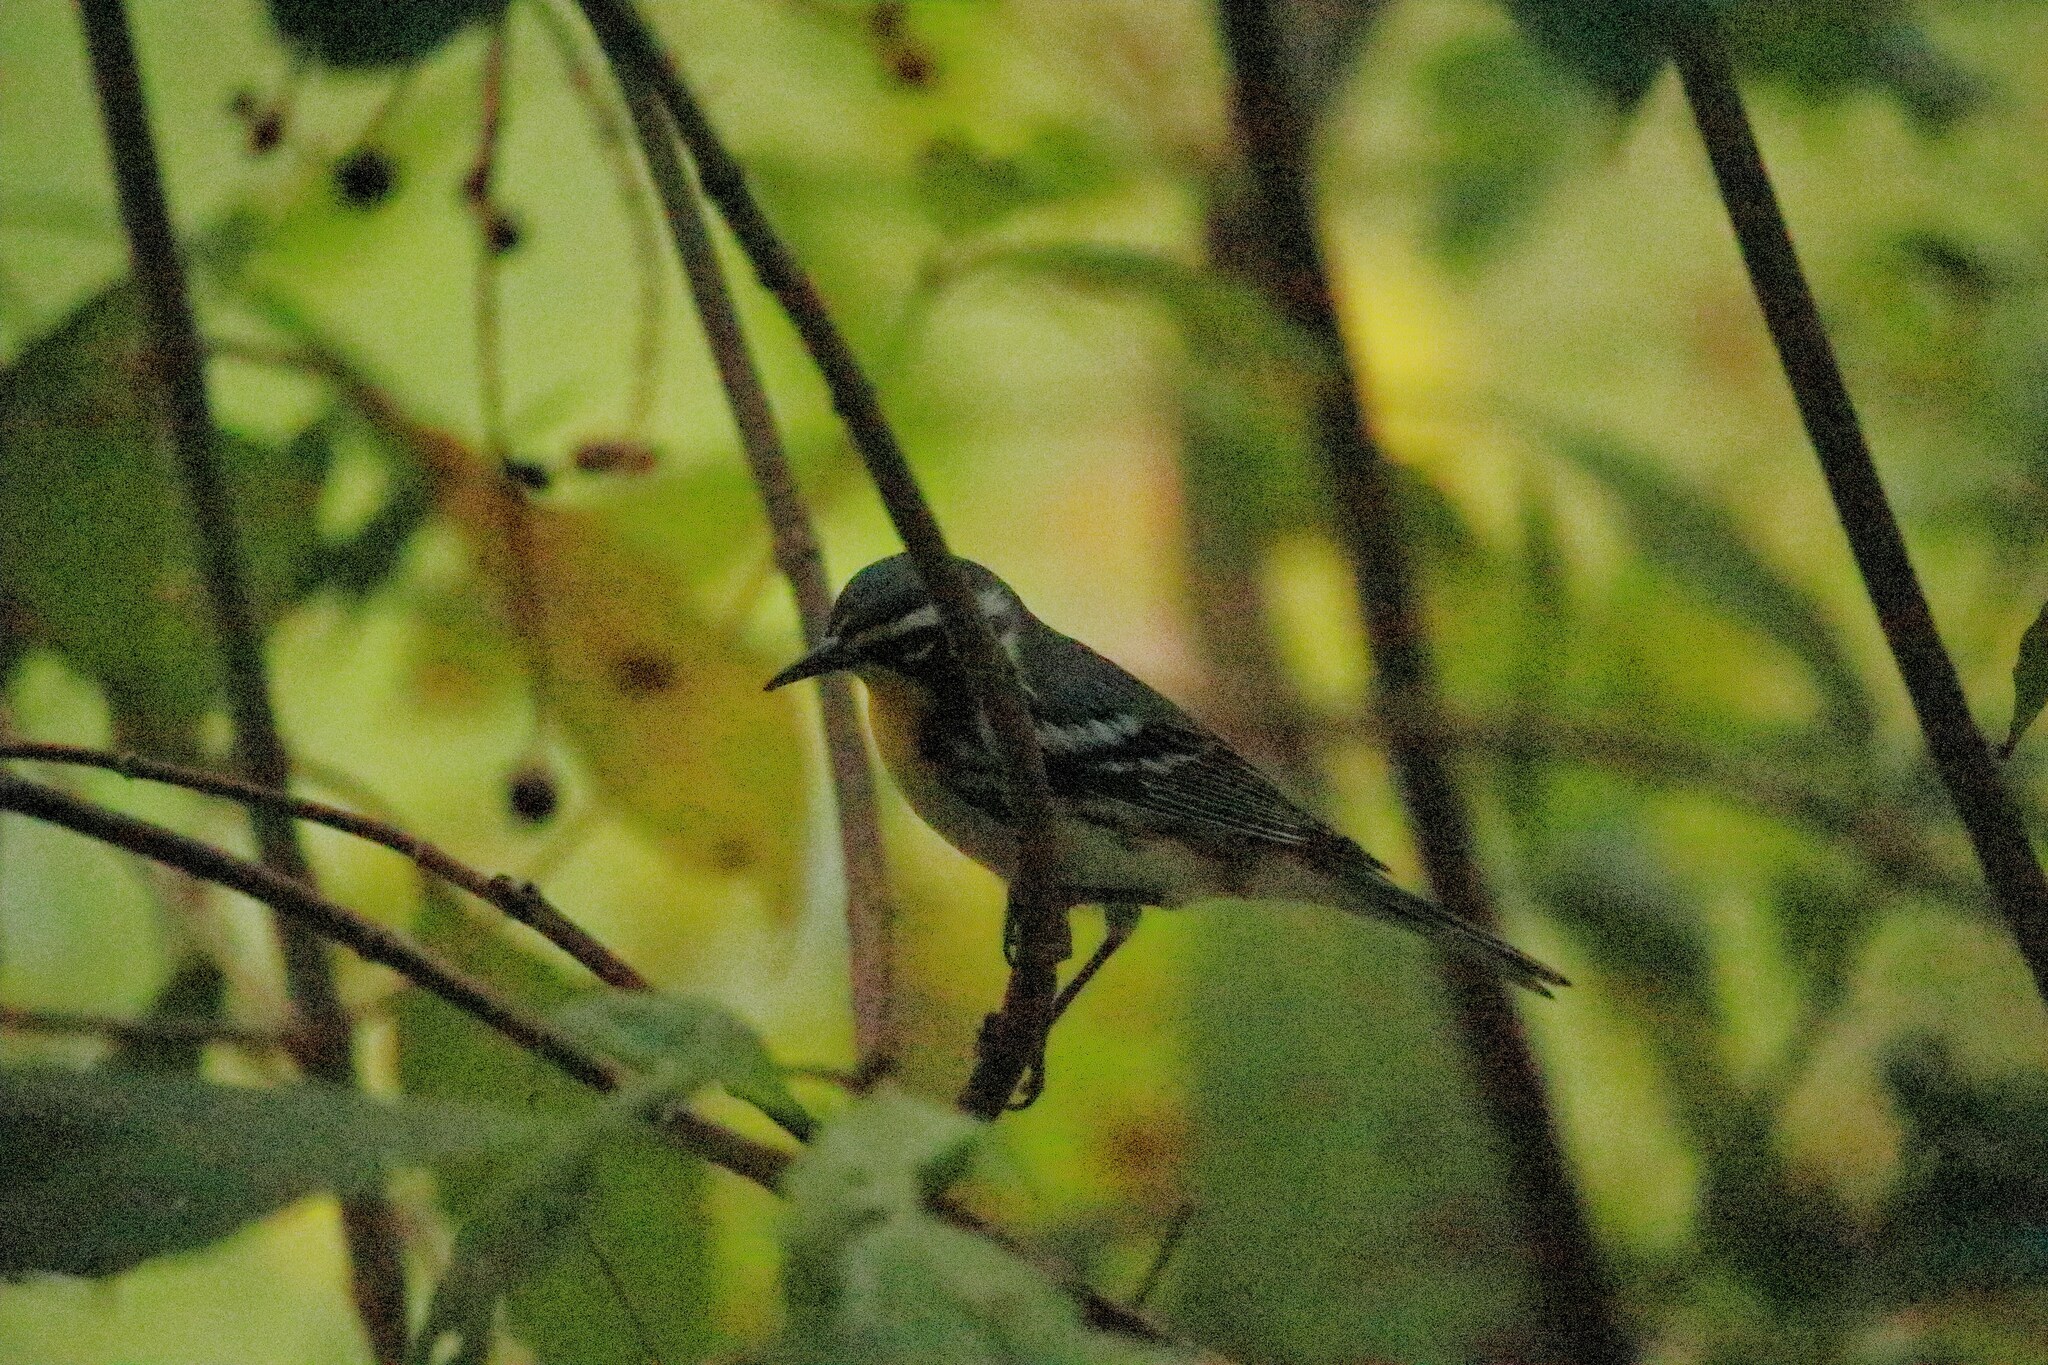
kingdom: Animalia
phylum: Chordata
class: Aves
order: Passeriformes
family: Parulidae
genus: Setophaga
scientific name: Setophaga dominica
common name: Yellow-throated warbler
